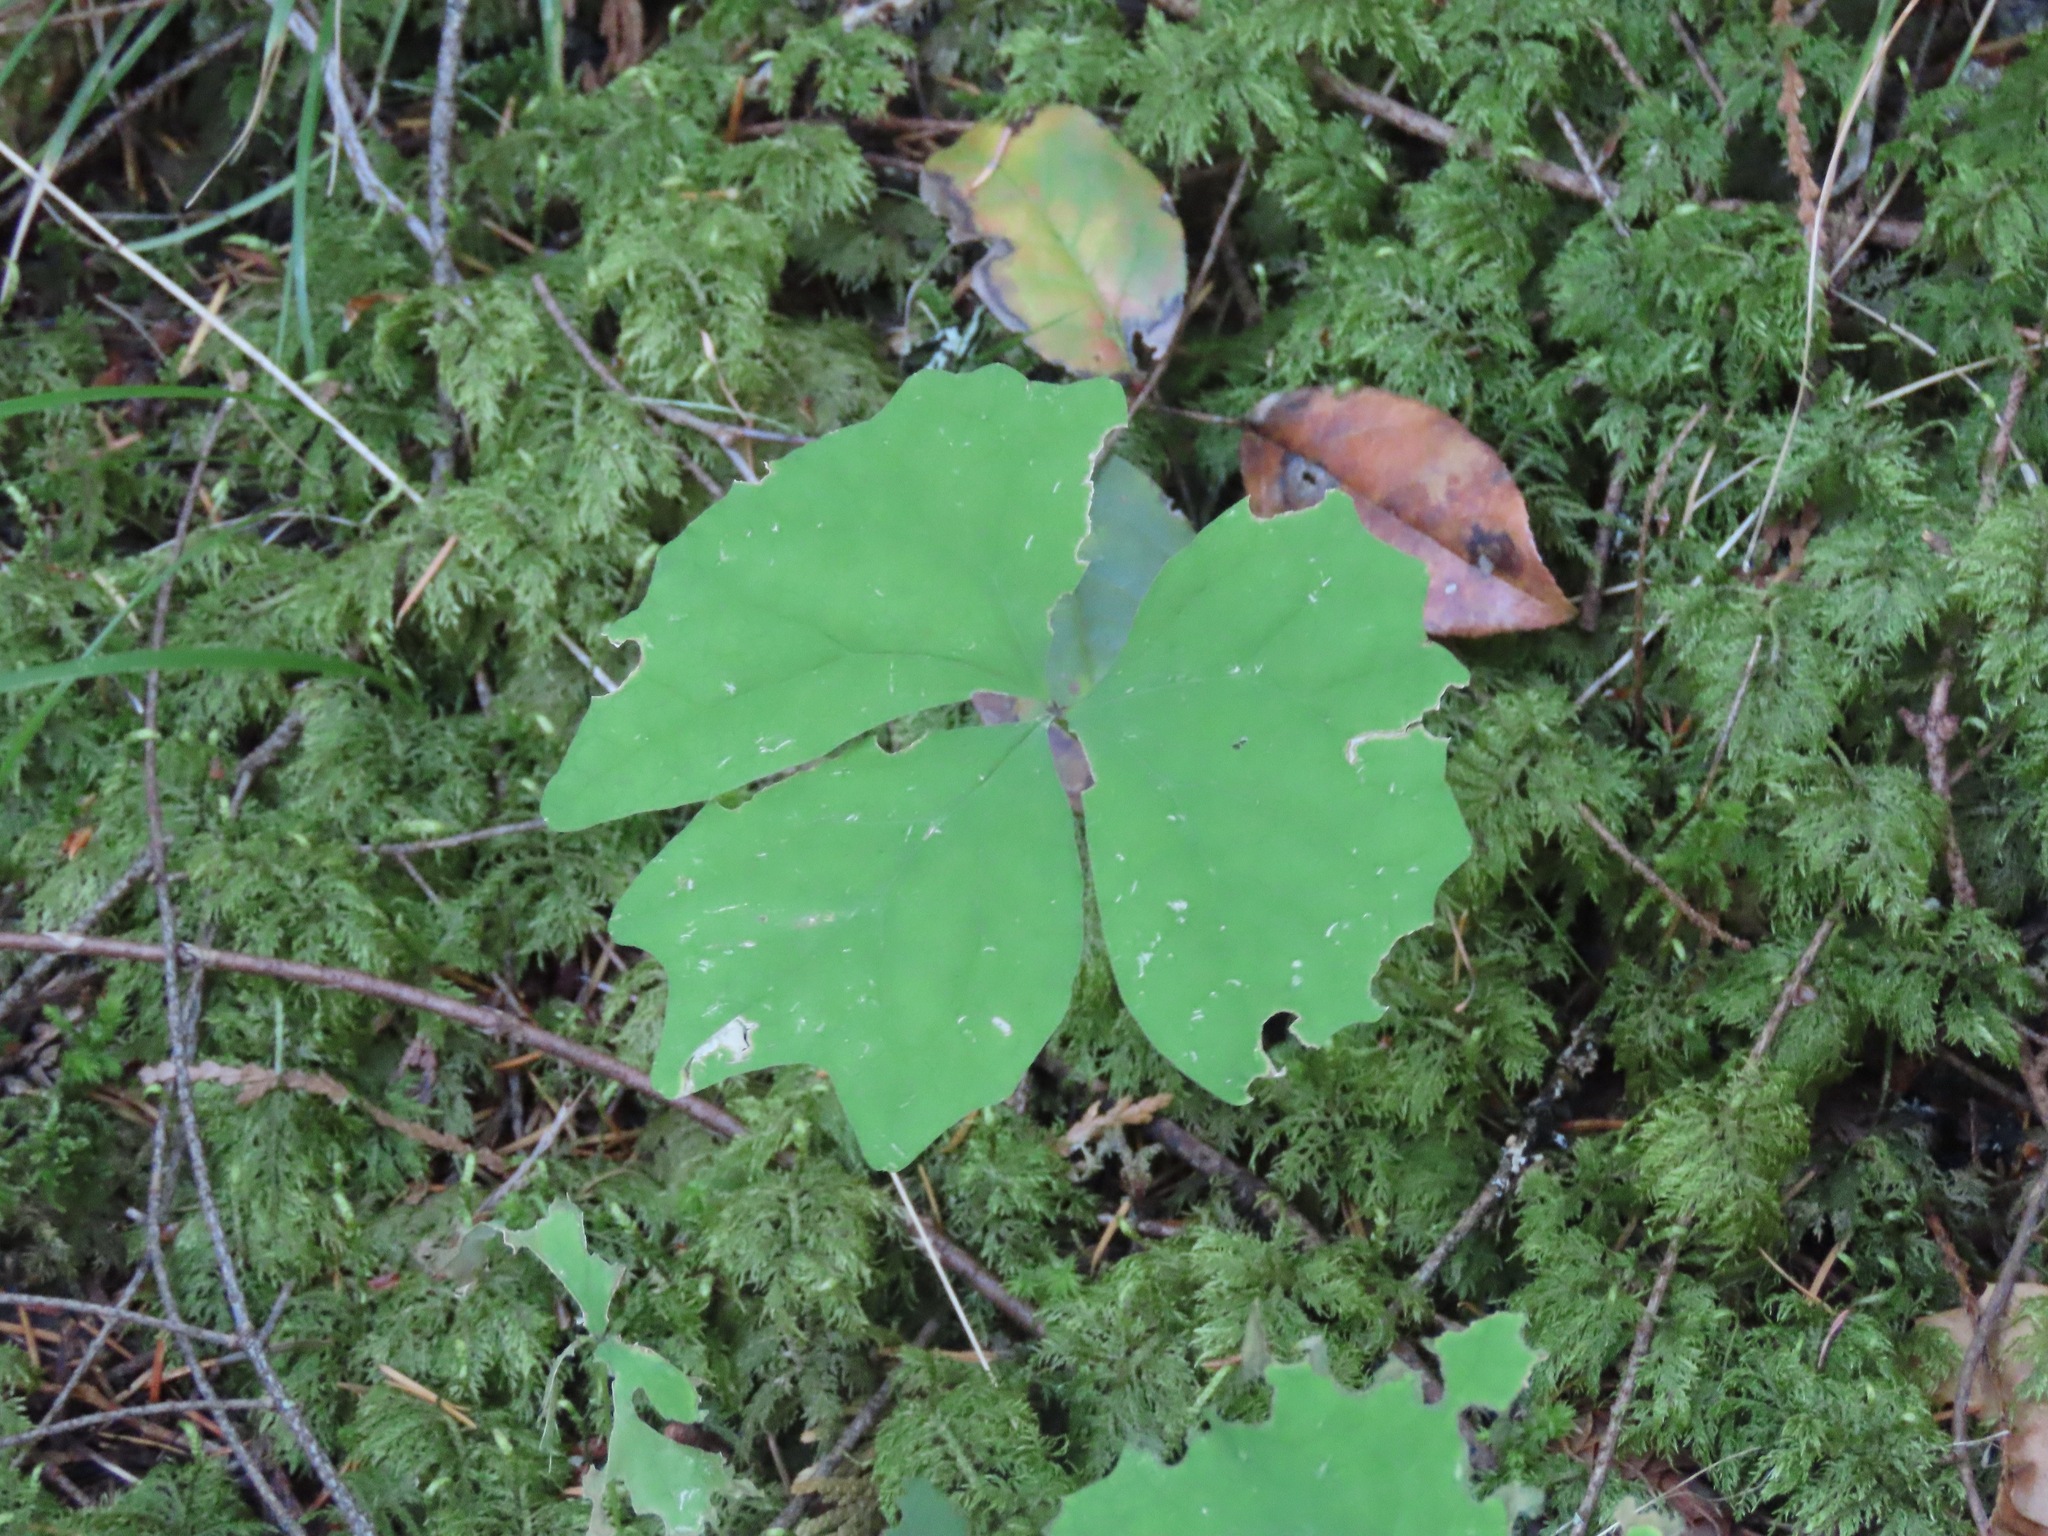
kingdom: Plantae
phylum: Tracheophyta
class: Magnoliopsida
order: Ranunculales
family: Berberidaceae
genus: Achlys
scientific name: Achlys triphylla
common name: Vanilla-leaf
